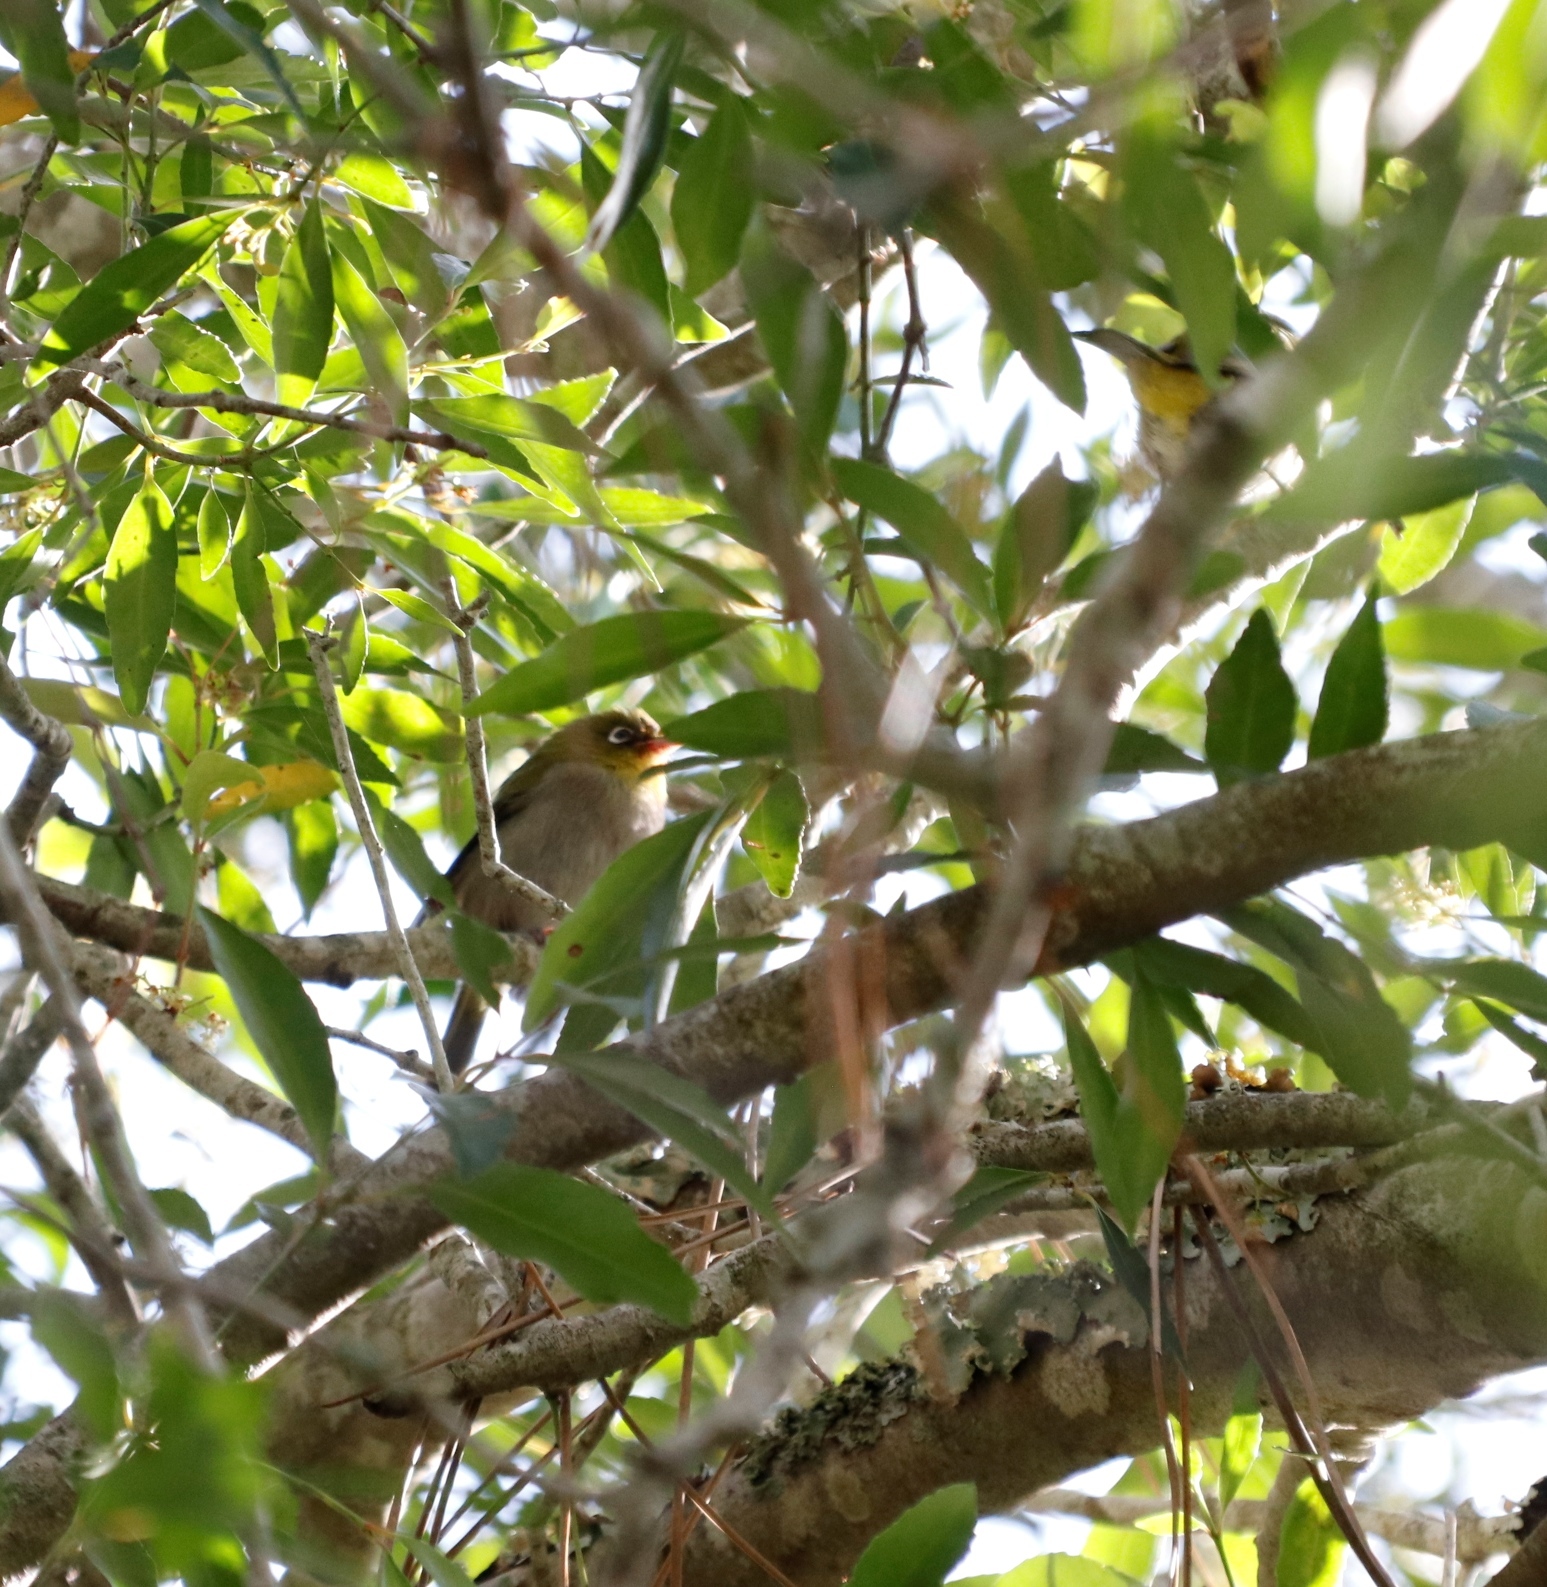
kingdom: Animalia
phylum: Chordata
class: Aves
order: Passeriformes
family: Zosteropidae
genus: Zosterops
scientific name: Zosterops virens
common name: Cape white-eye
